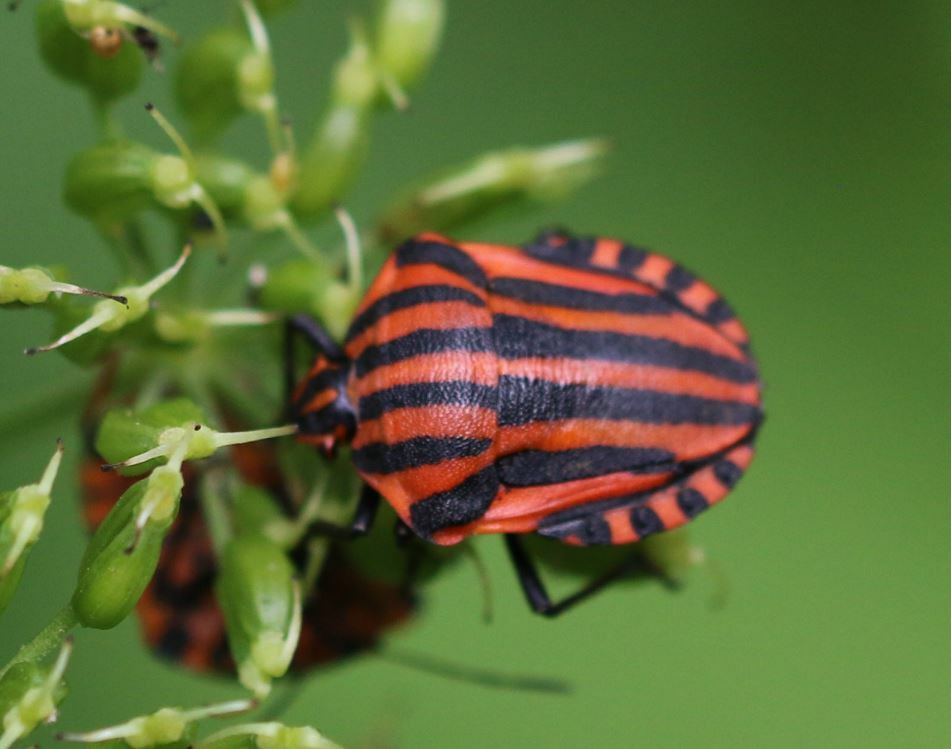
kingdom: Animalia
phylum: Arthropoda
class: Insecta
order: Hemiptera
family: Pentatomidae
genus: Graphosoma
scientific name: Graphosoma italicum
